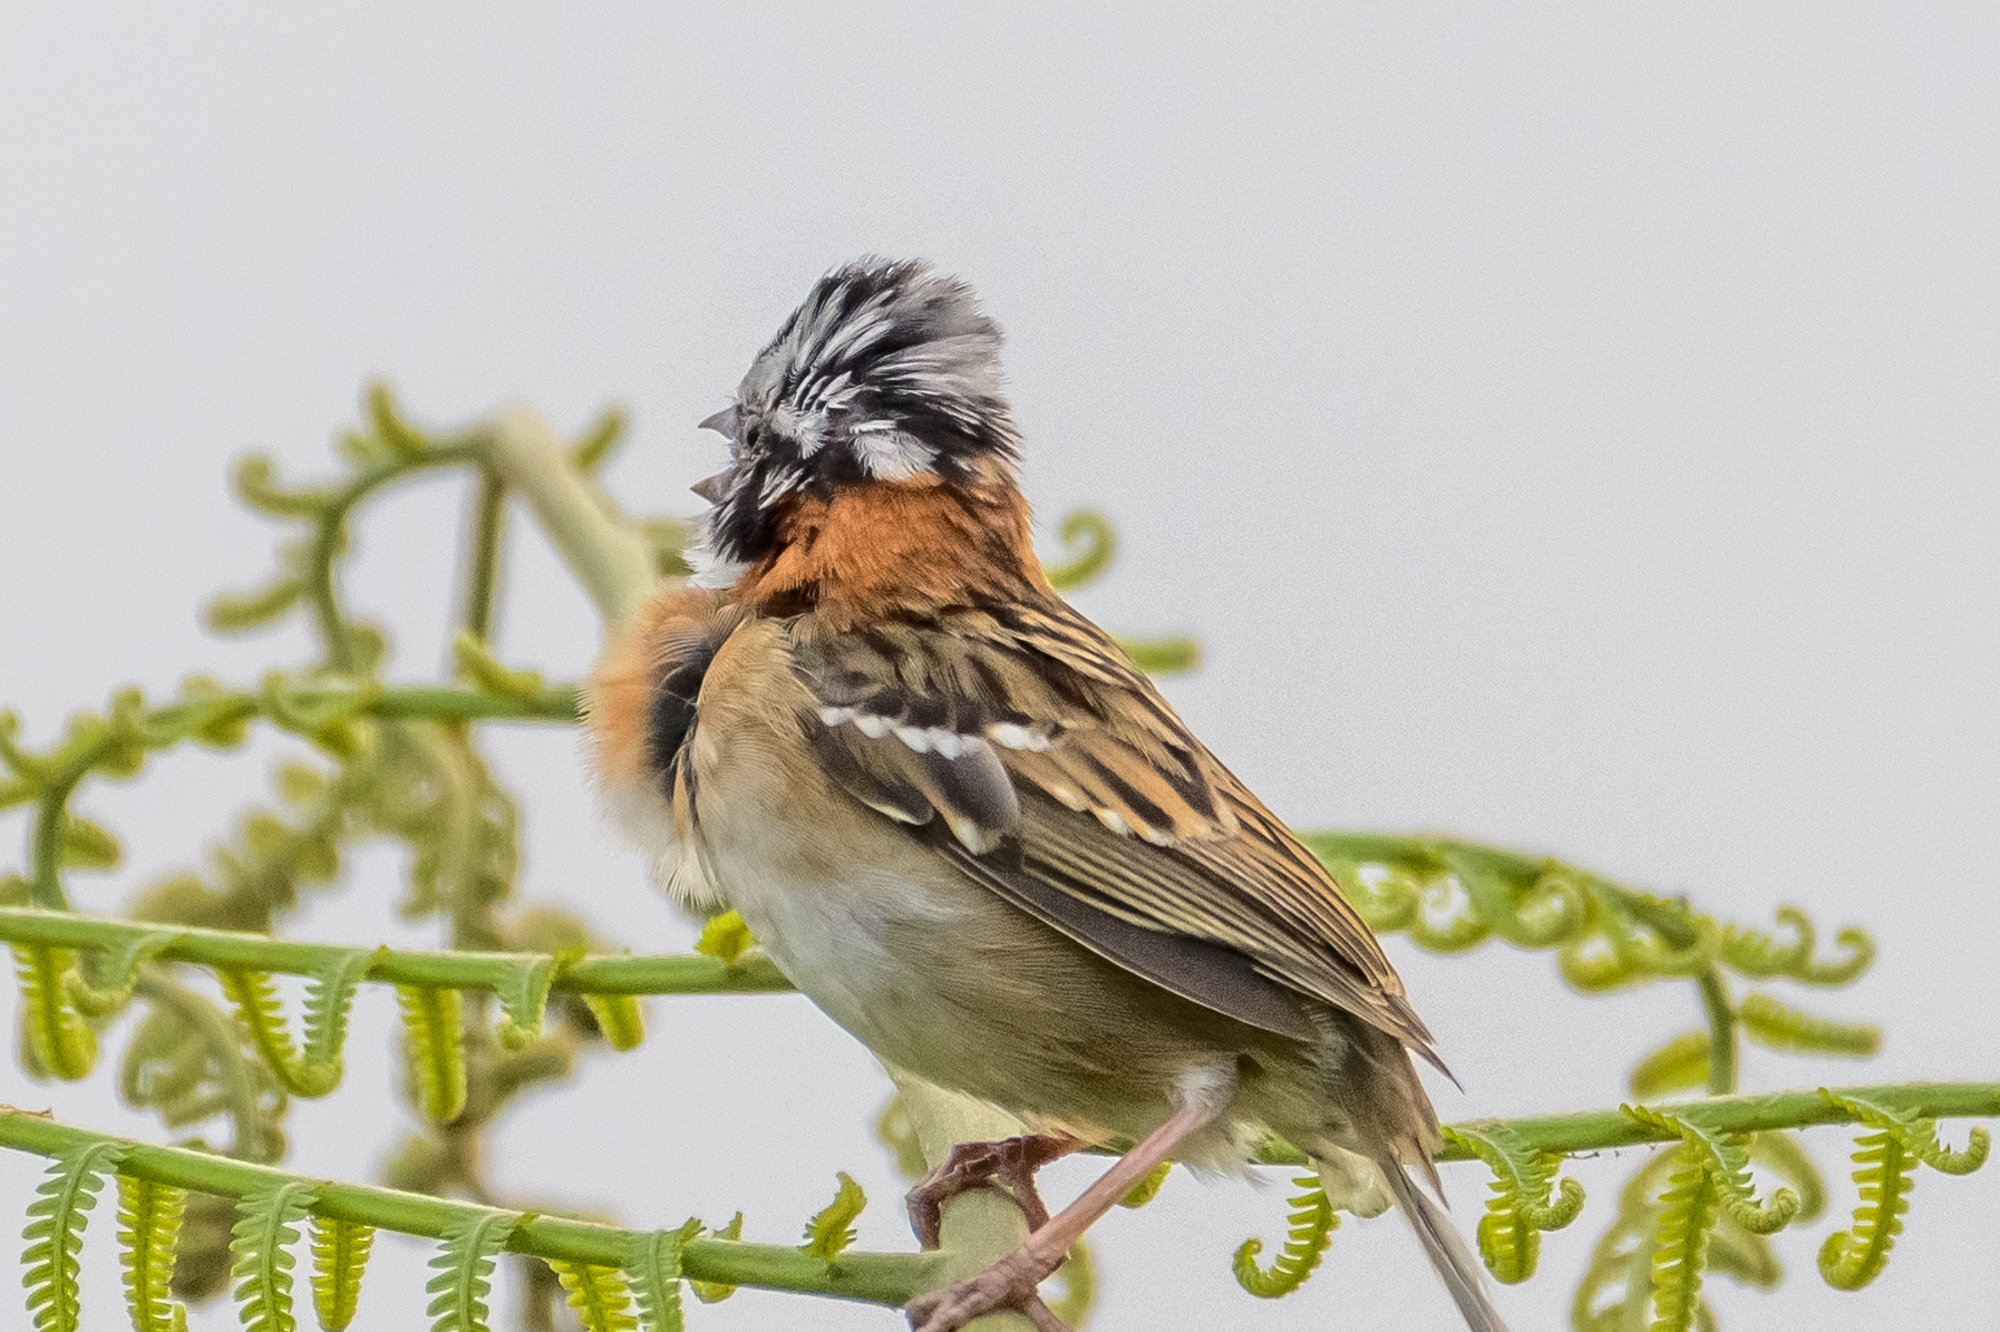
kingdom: Animalia
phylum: Chordata
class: Aves
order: Passeriformes
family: Passerellidae
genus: Zonotrichia
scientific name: Zonotrichia capensis
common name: Rufous-collared sparrow
